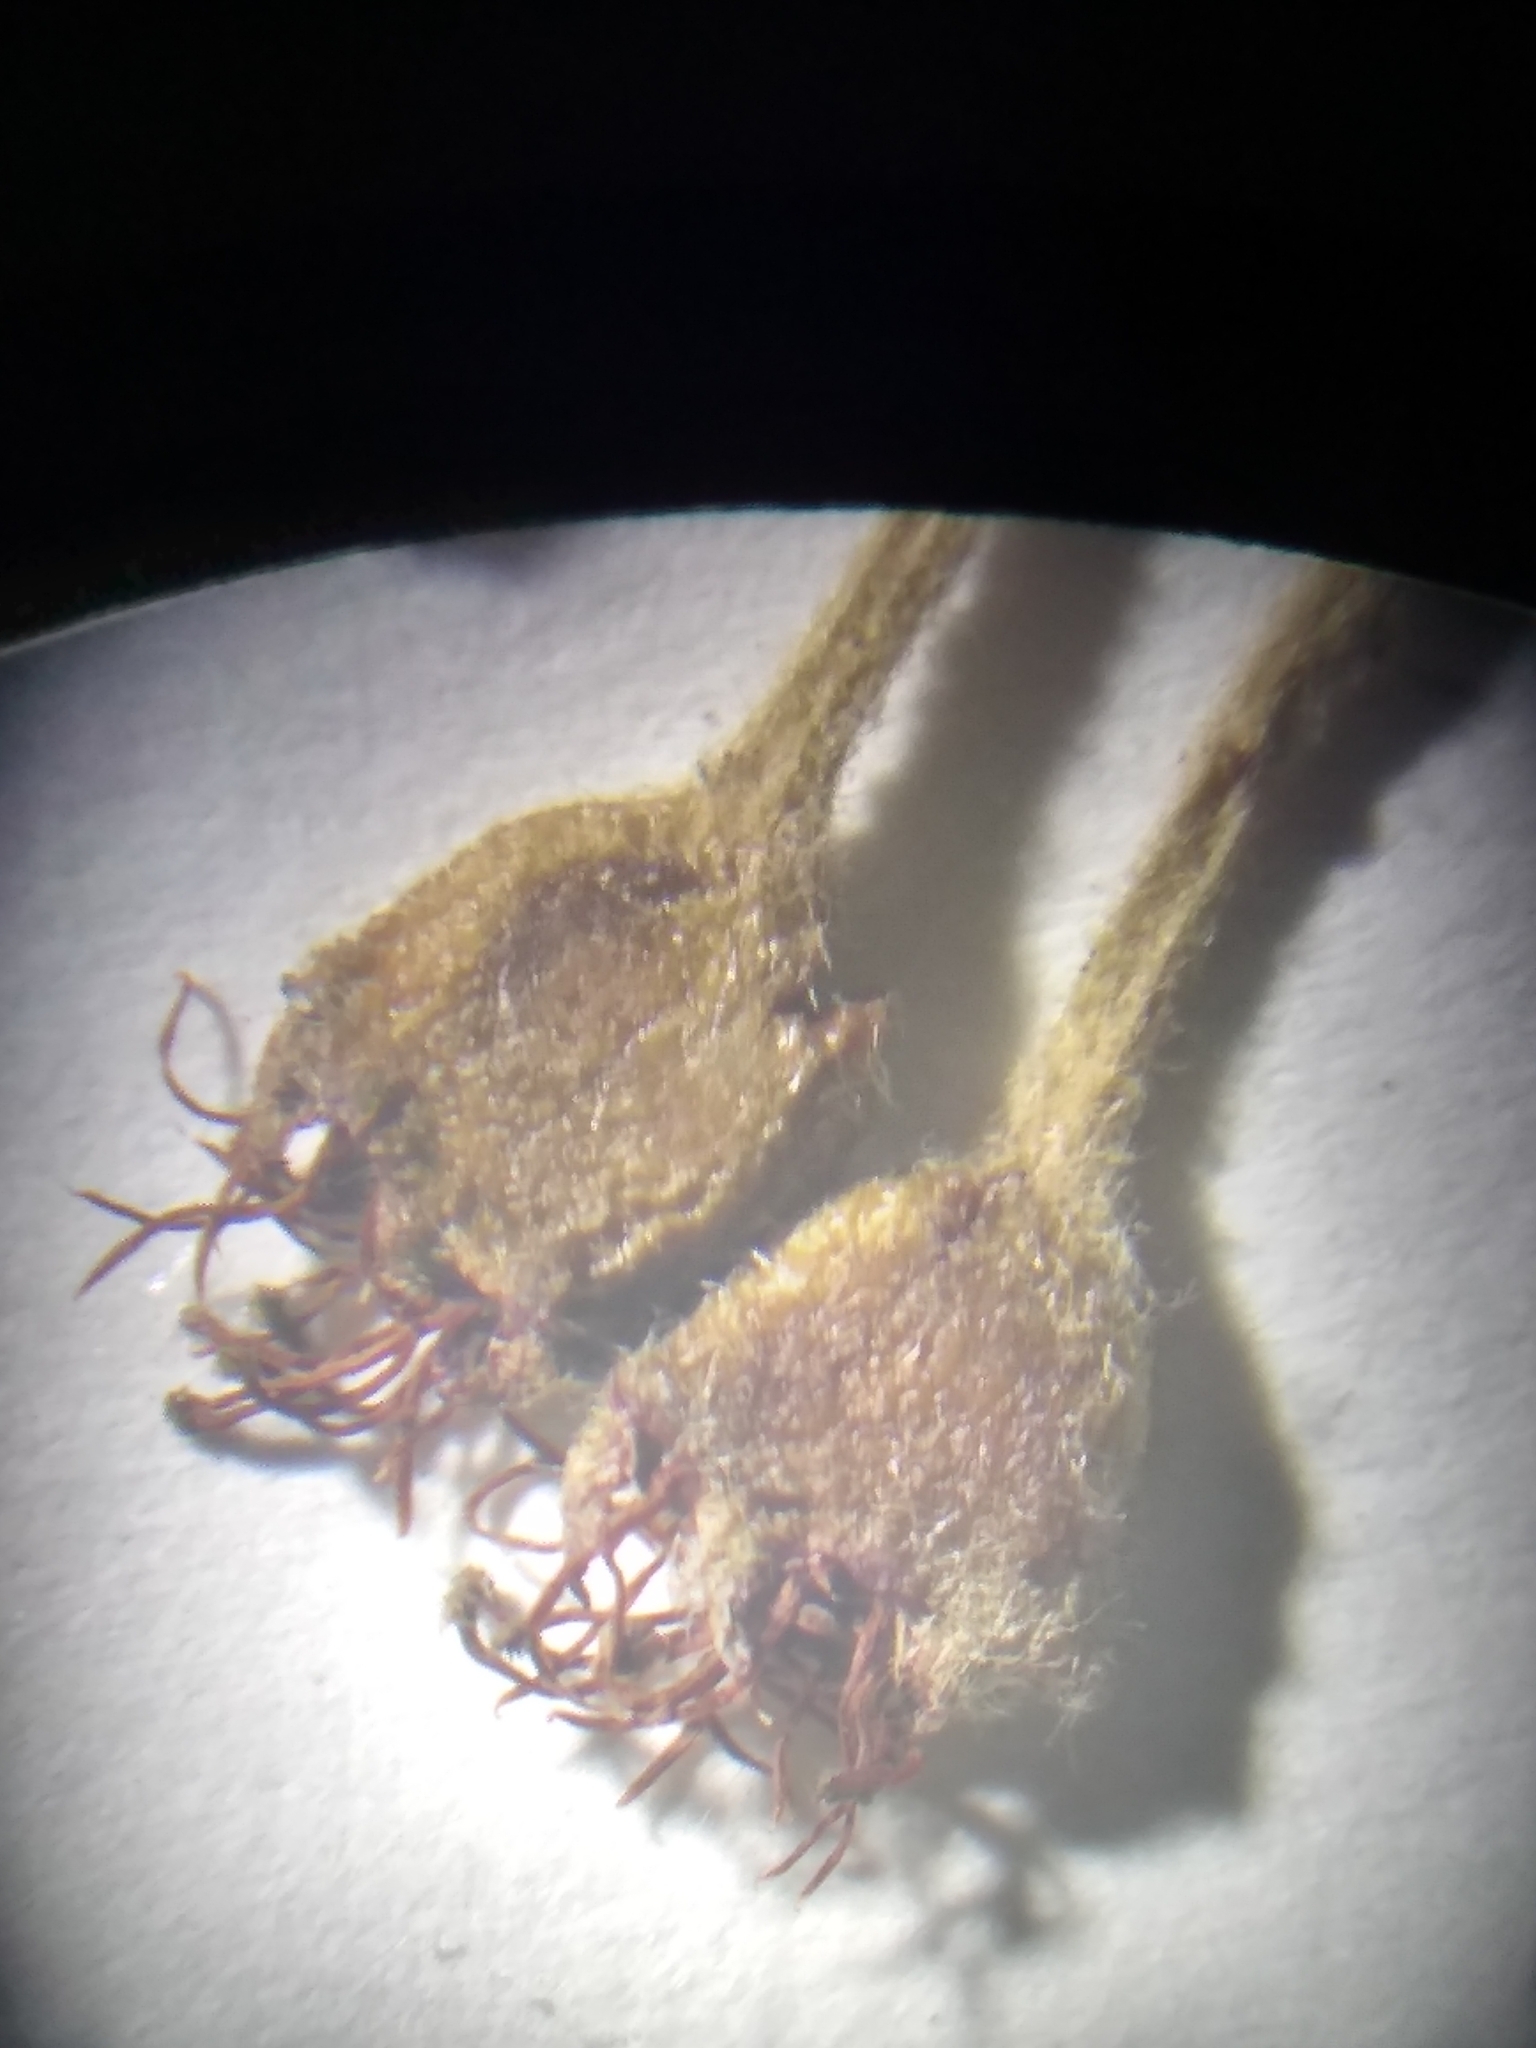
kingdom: Plantae
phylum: Tracheophyta
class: Magnoliopsida
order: Rosales
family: Rosaceae
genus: Aronia
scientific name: Aronia prunifolia
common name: Purple chokeberry
